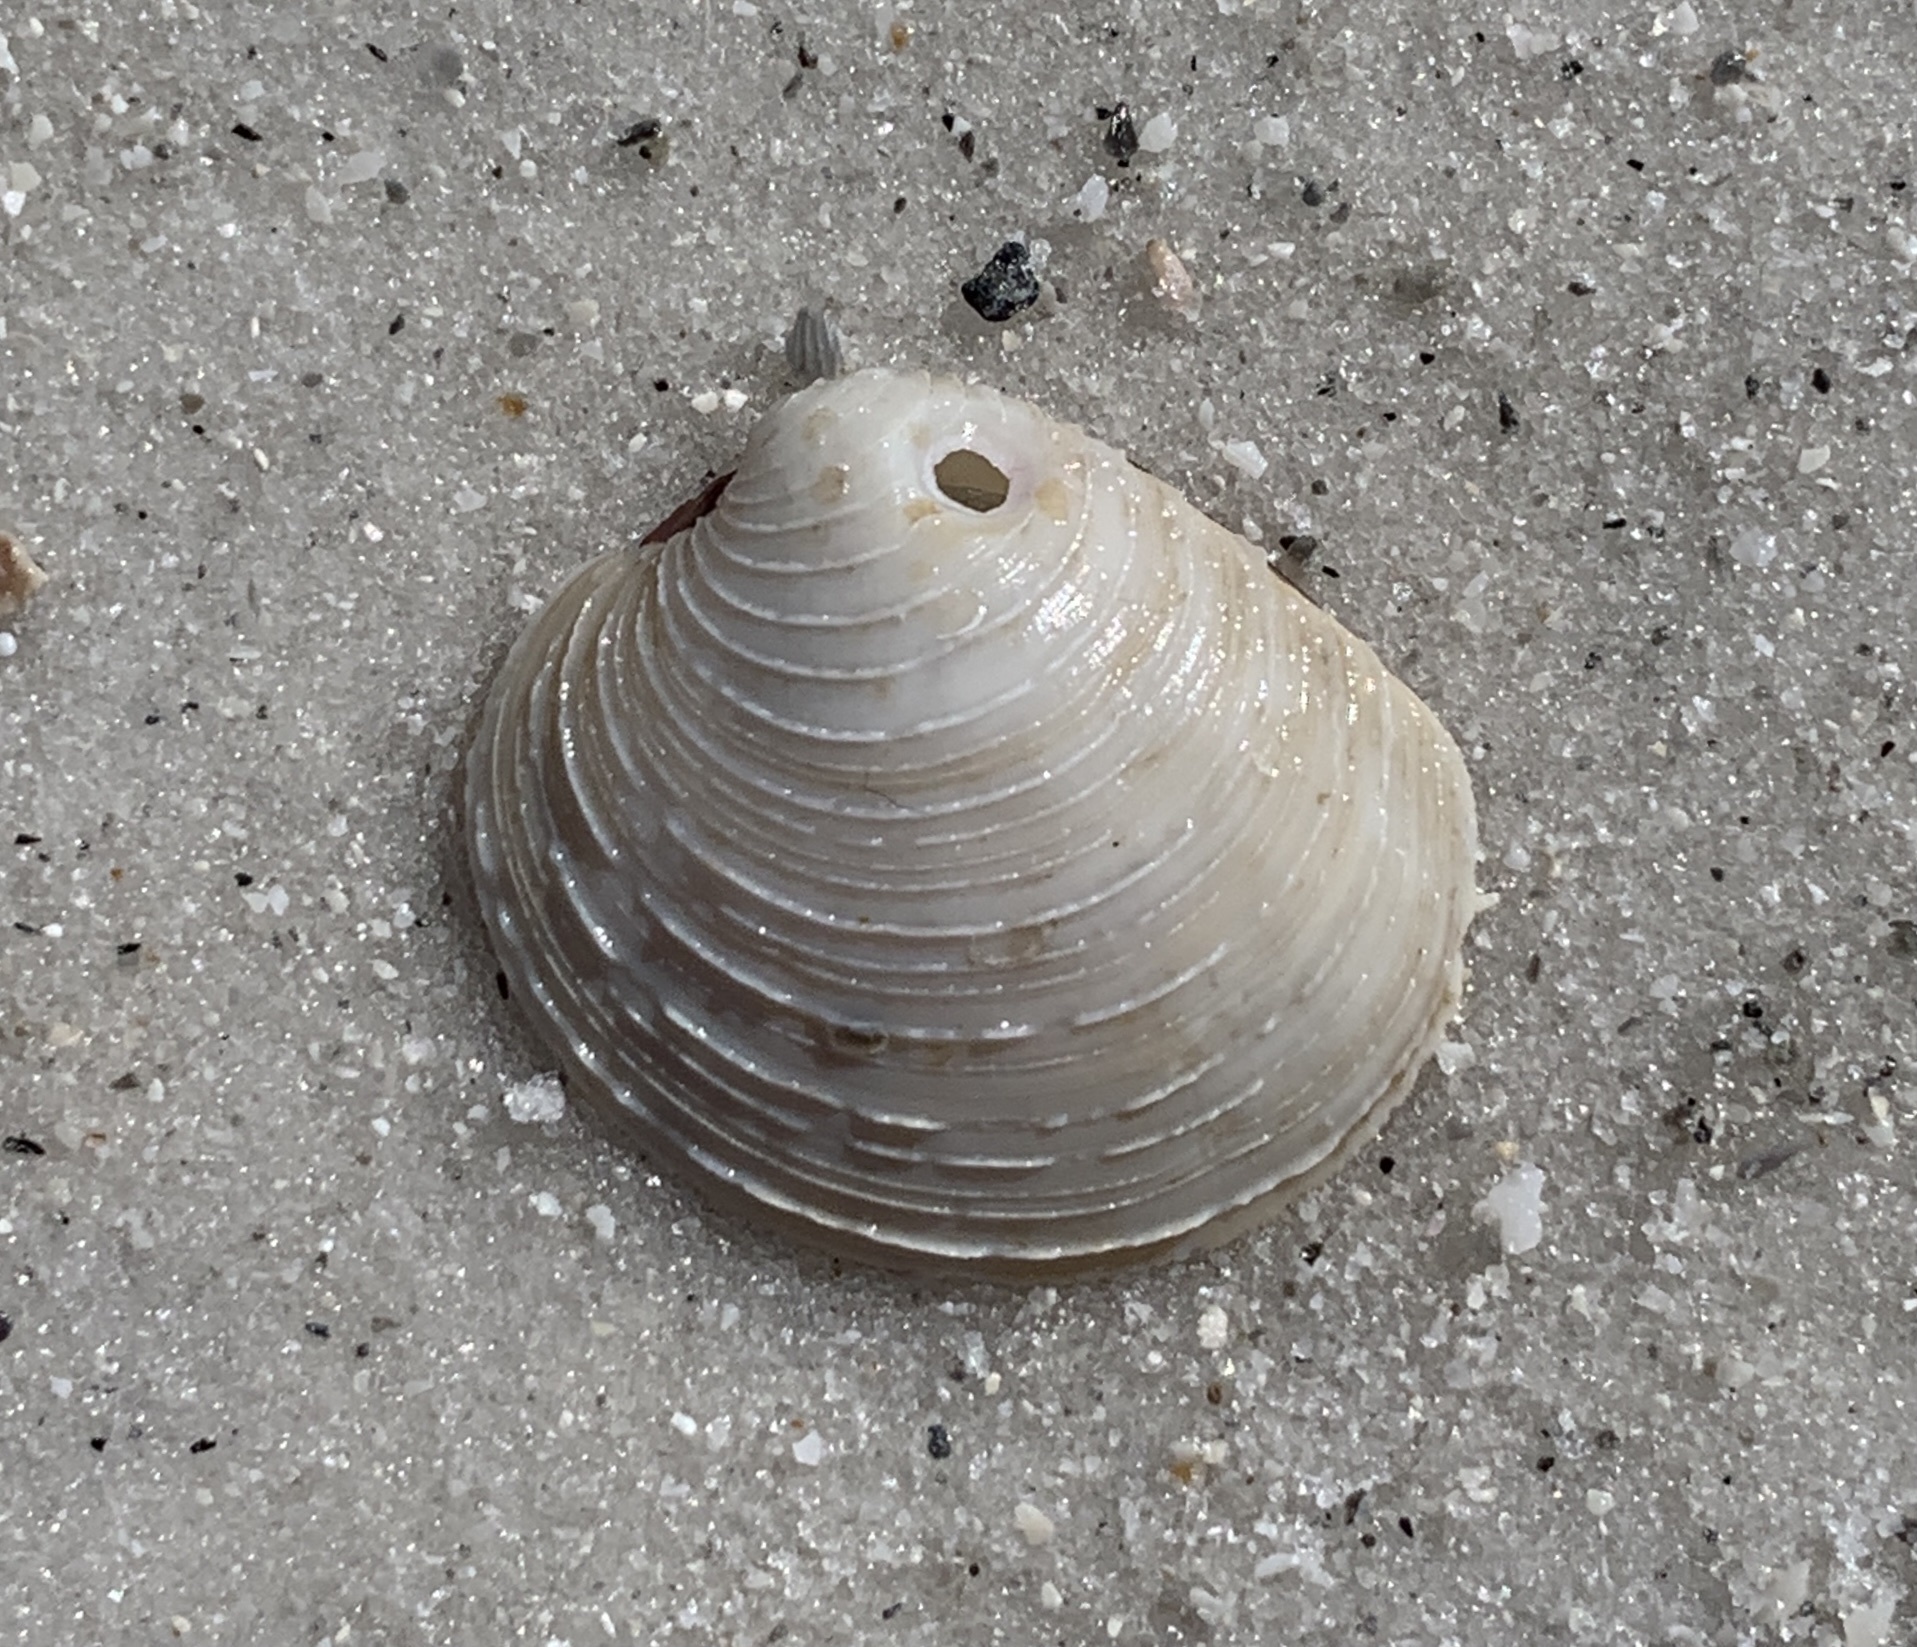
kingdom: Animalia
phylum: Mollusca
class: Bivalvia
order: Venerida
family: Veneridae
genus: Mercenaria
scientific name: Mercenaria campechiensis
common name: Südliche quahog-muschel
